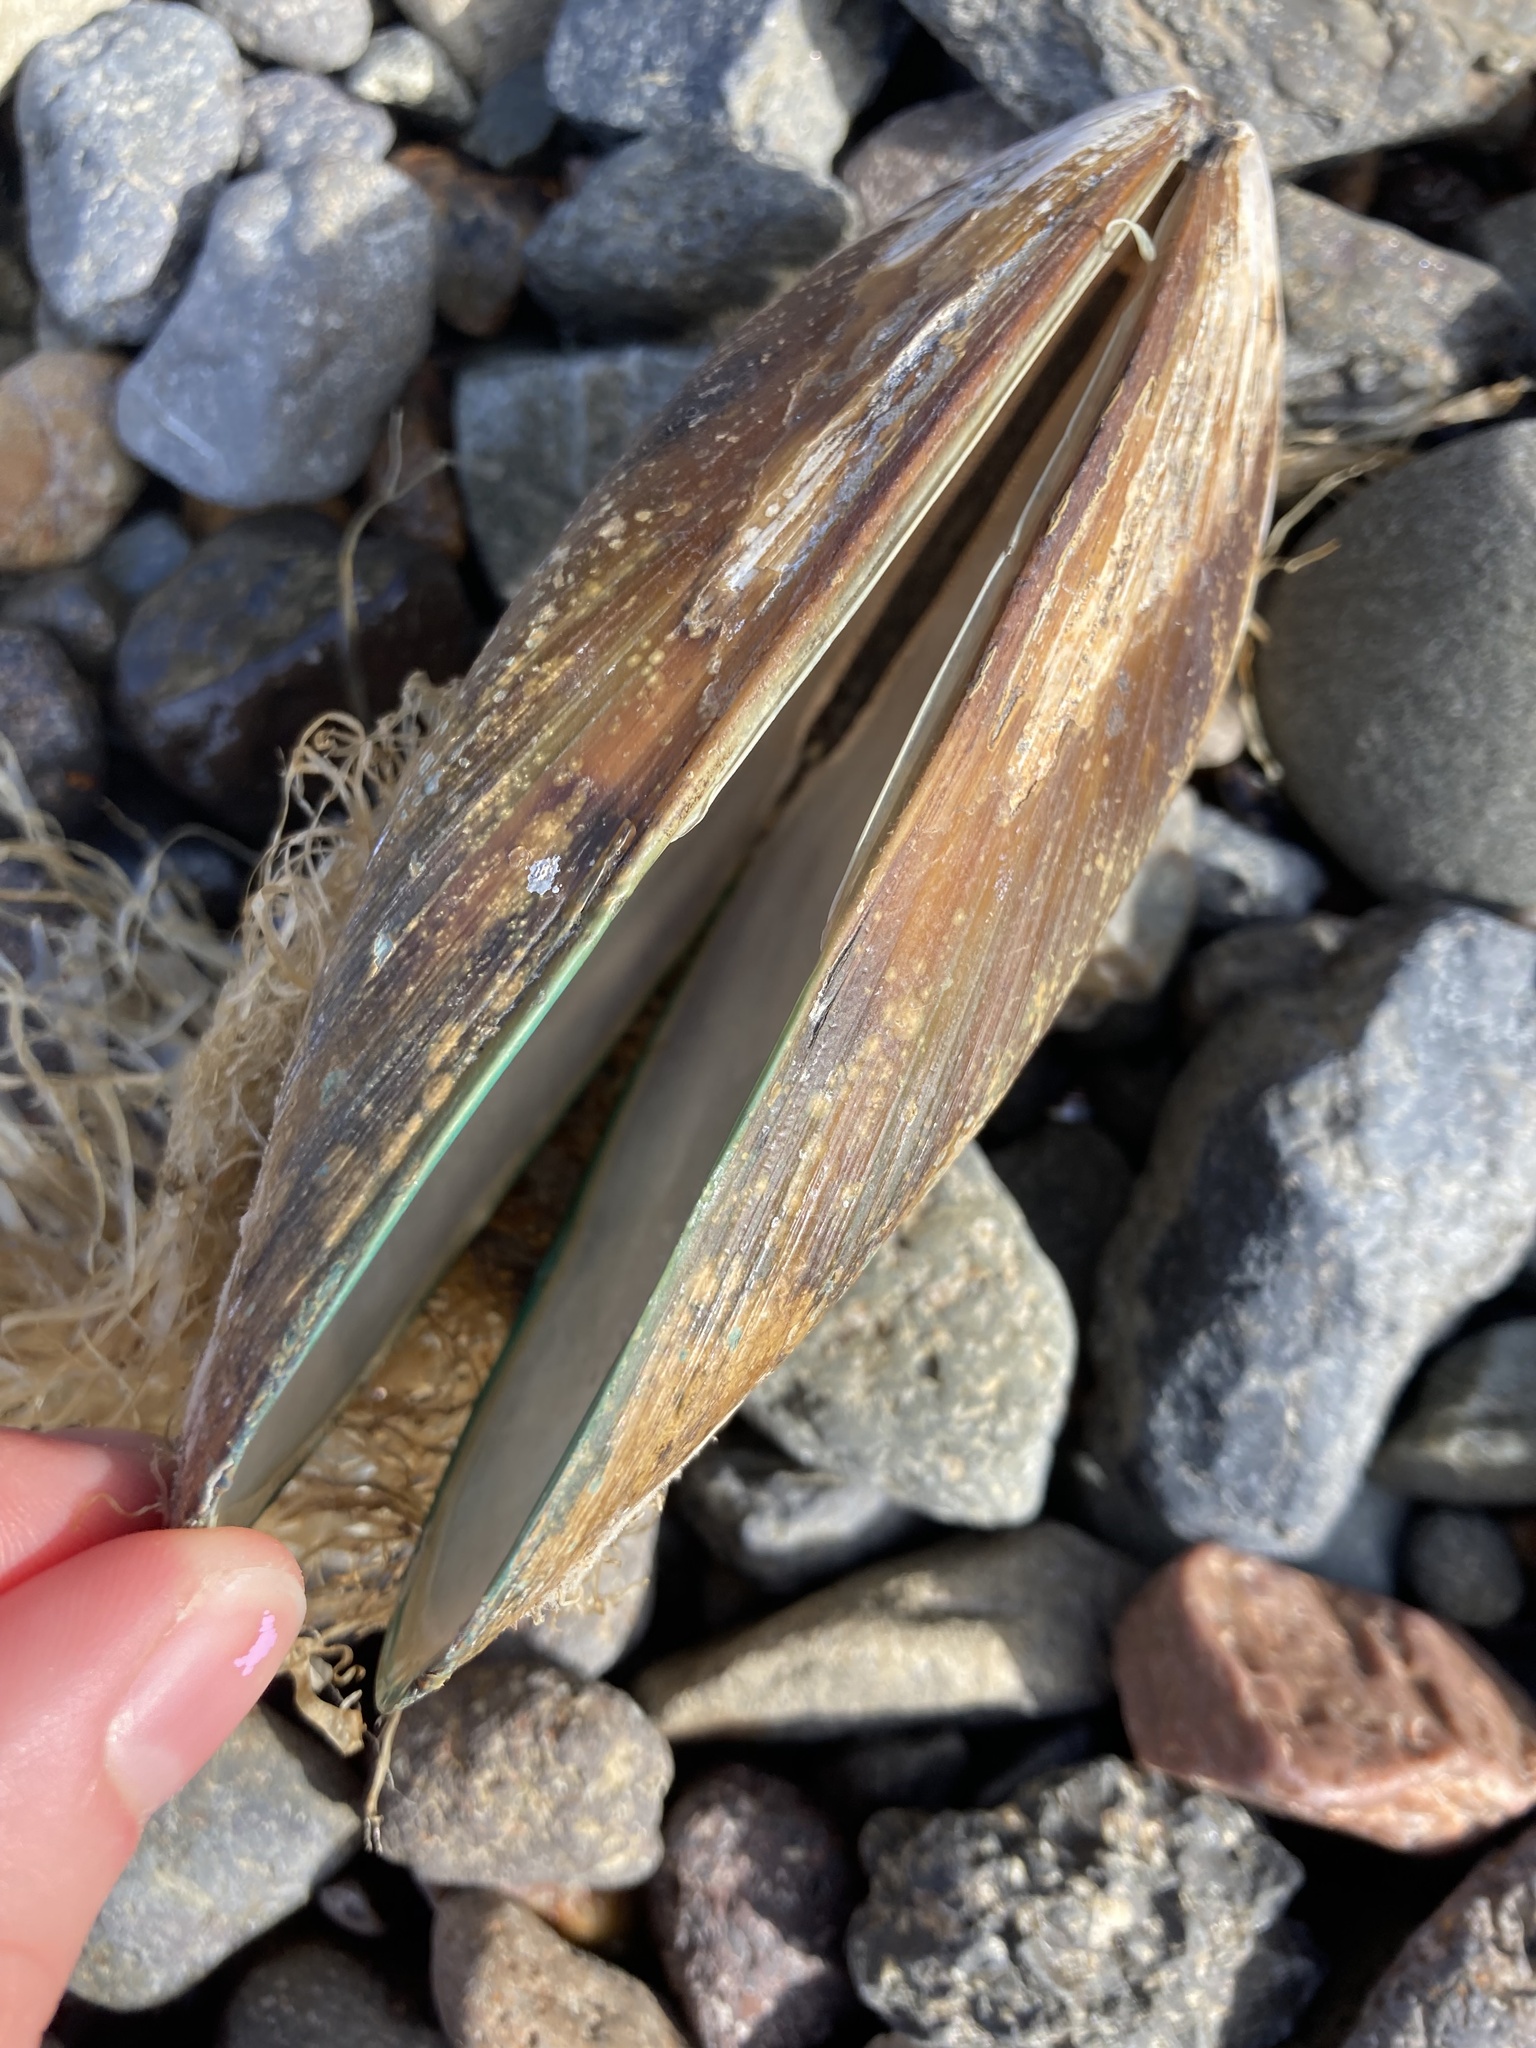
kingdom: Animalia
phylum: Mollusca
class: Bivalvia
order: Mytilida
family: Mytilidae
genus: Perna
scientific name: Perna canaliculus
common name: New zealand greenshelltm
